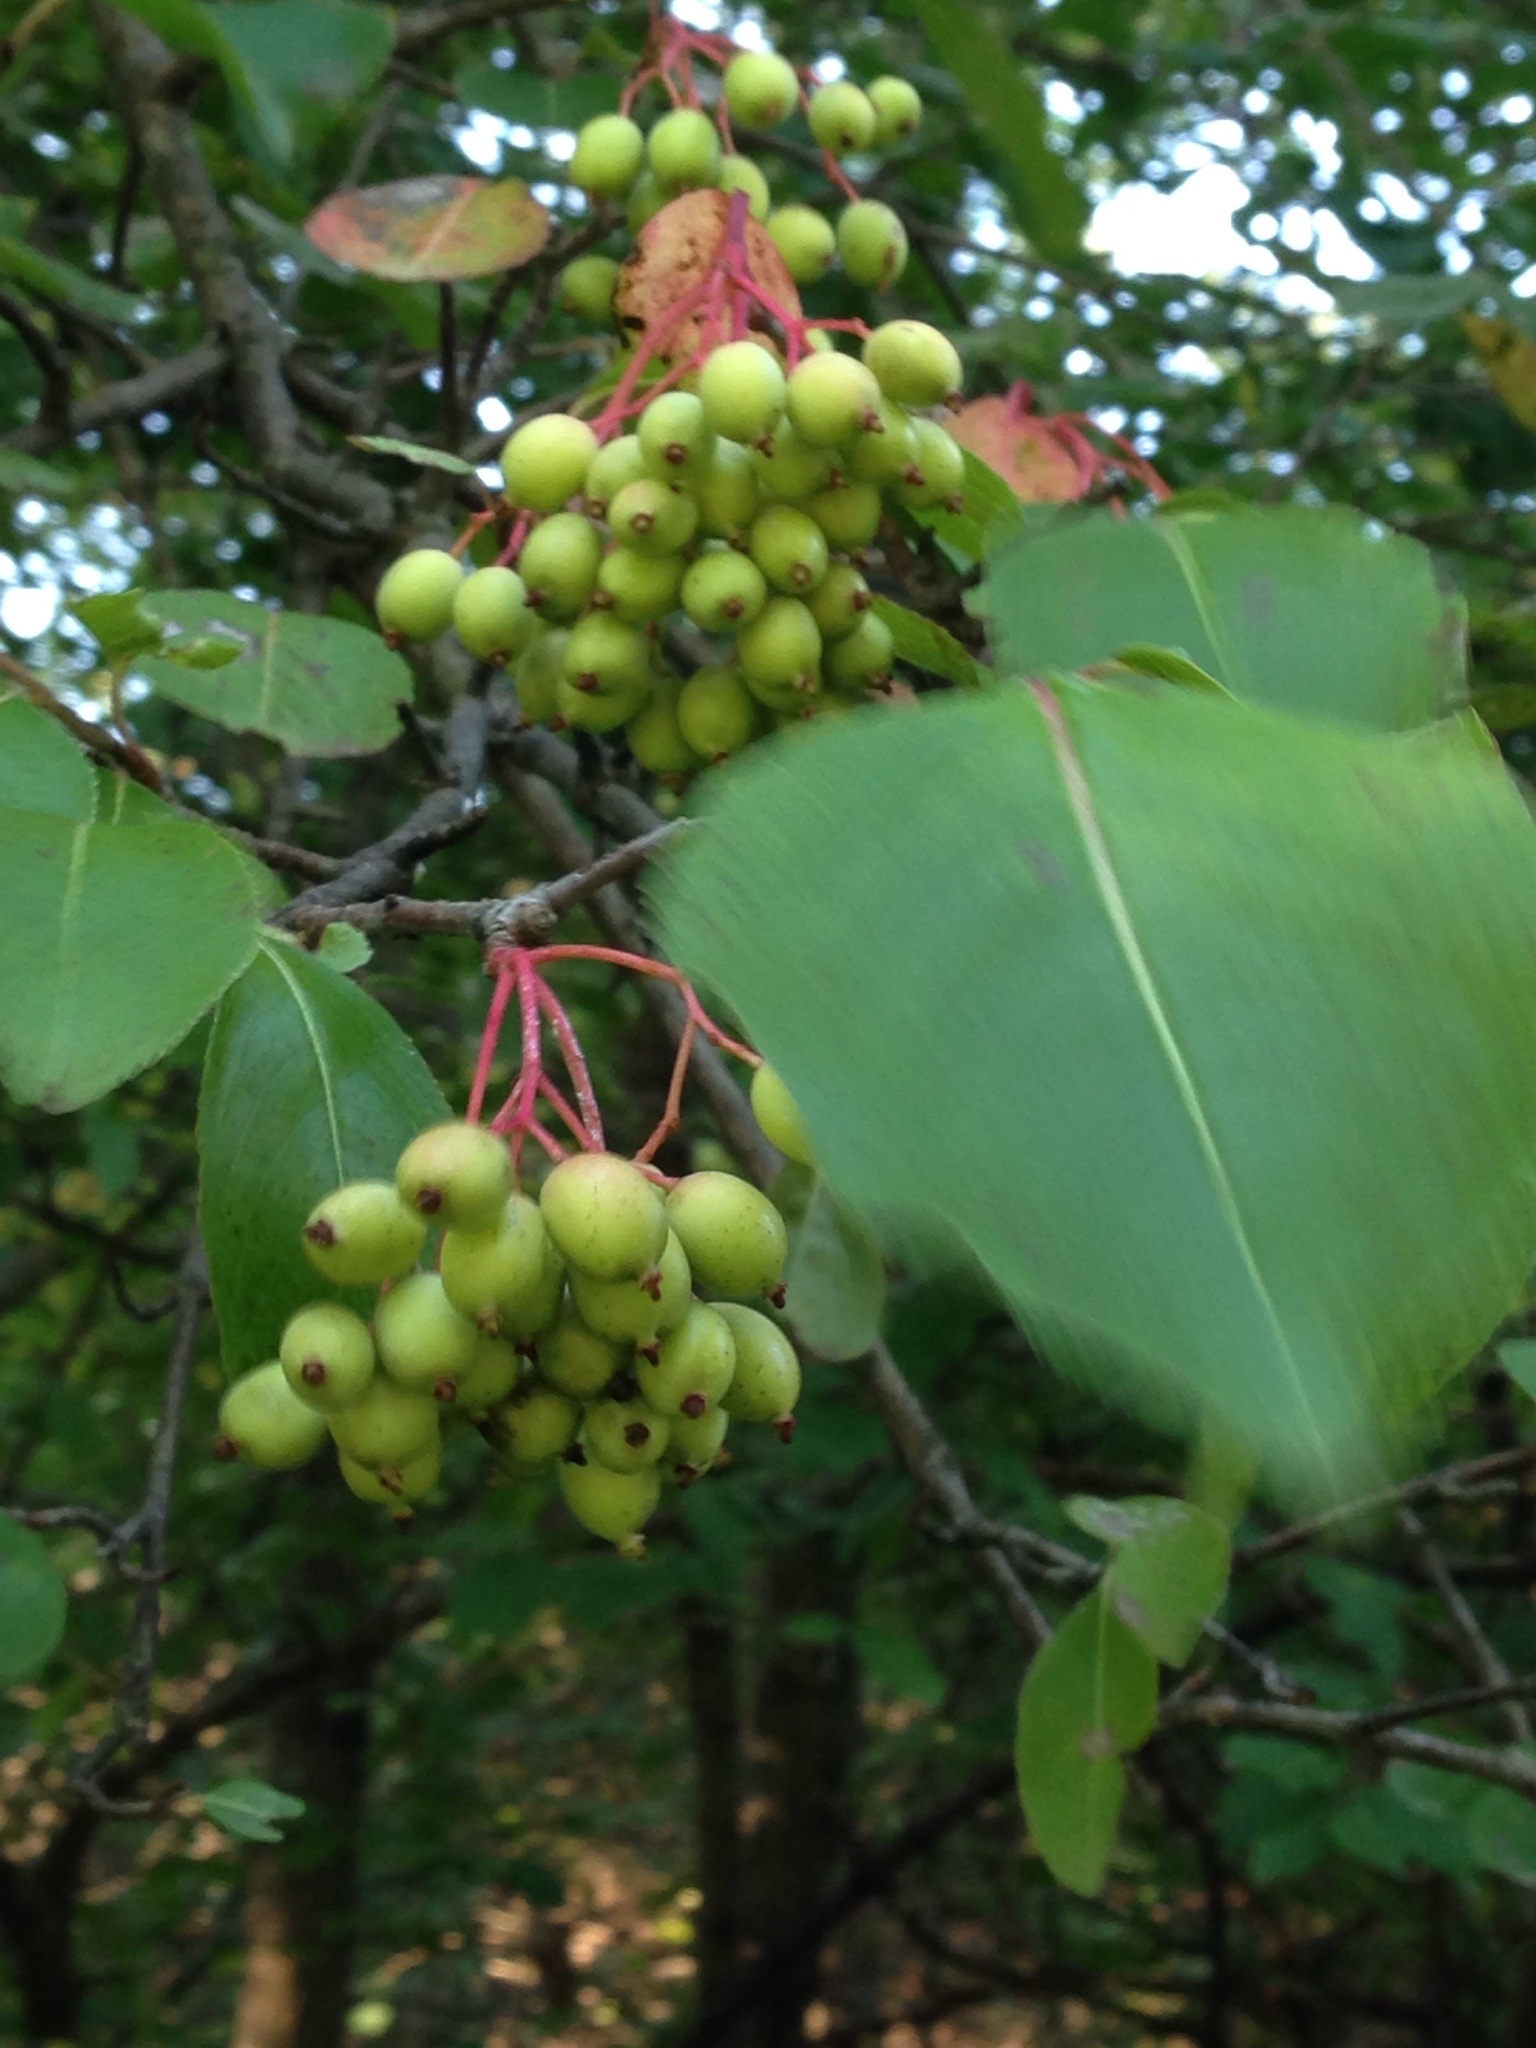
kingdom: Plantae
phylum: Tracheophyta
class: Magnoliopsida
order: Dipsacales
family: Viburnaceae
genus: Viburnum
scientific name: Viburnum prunifolium
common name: Black haw
